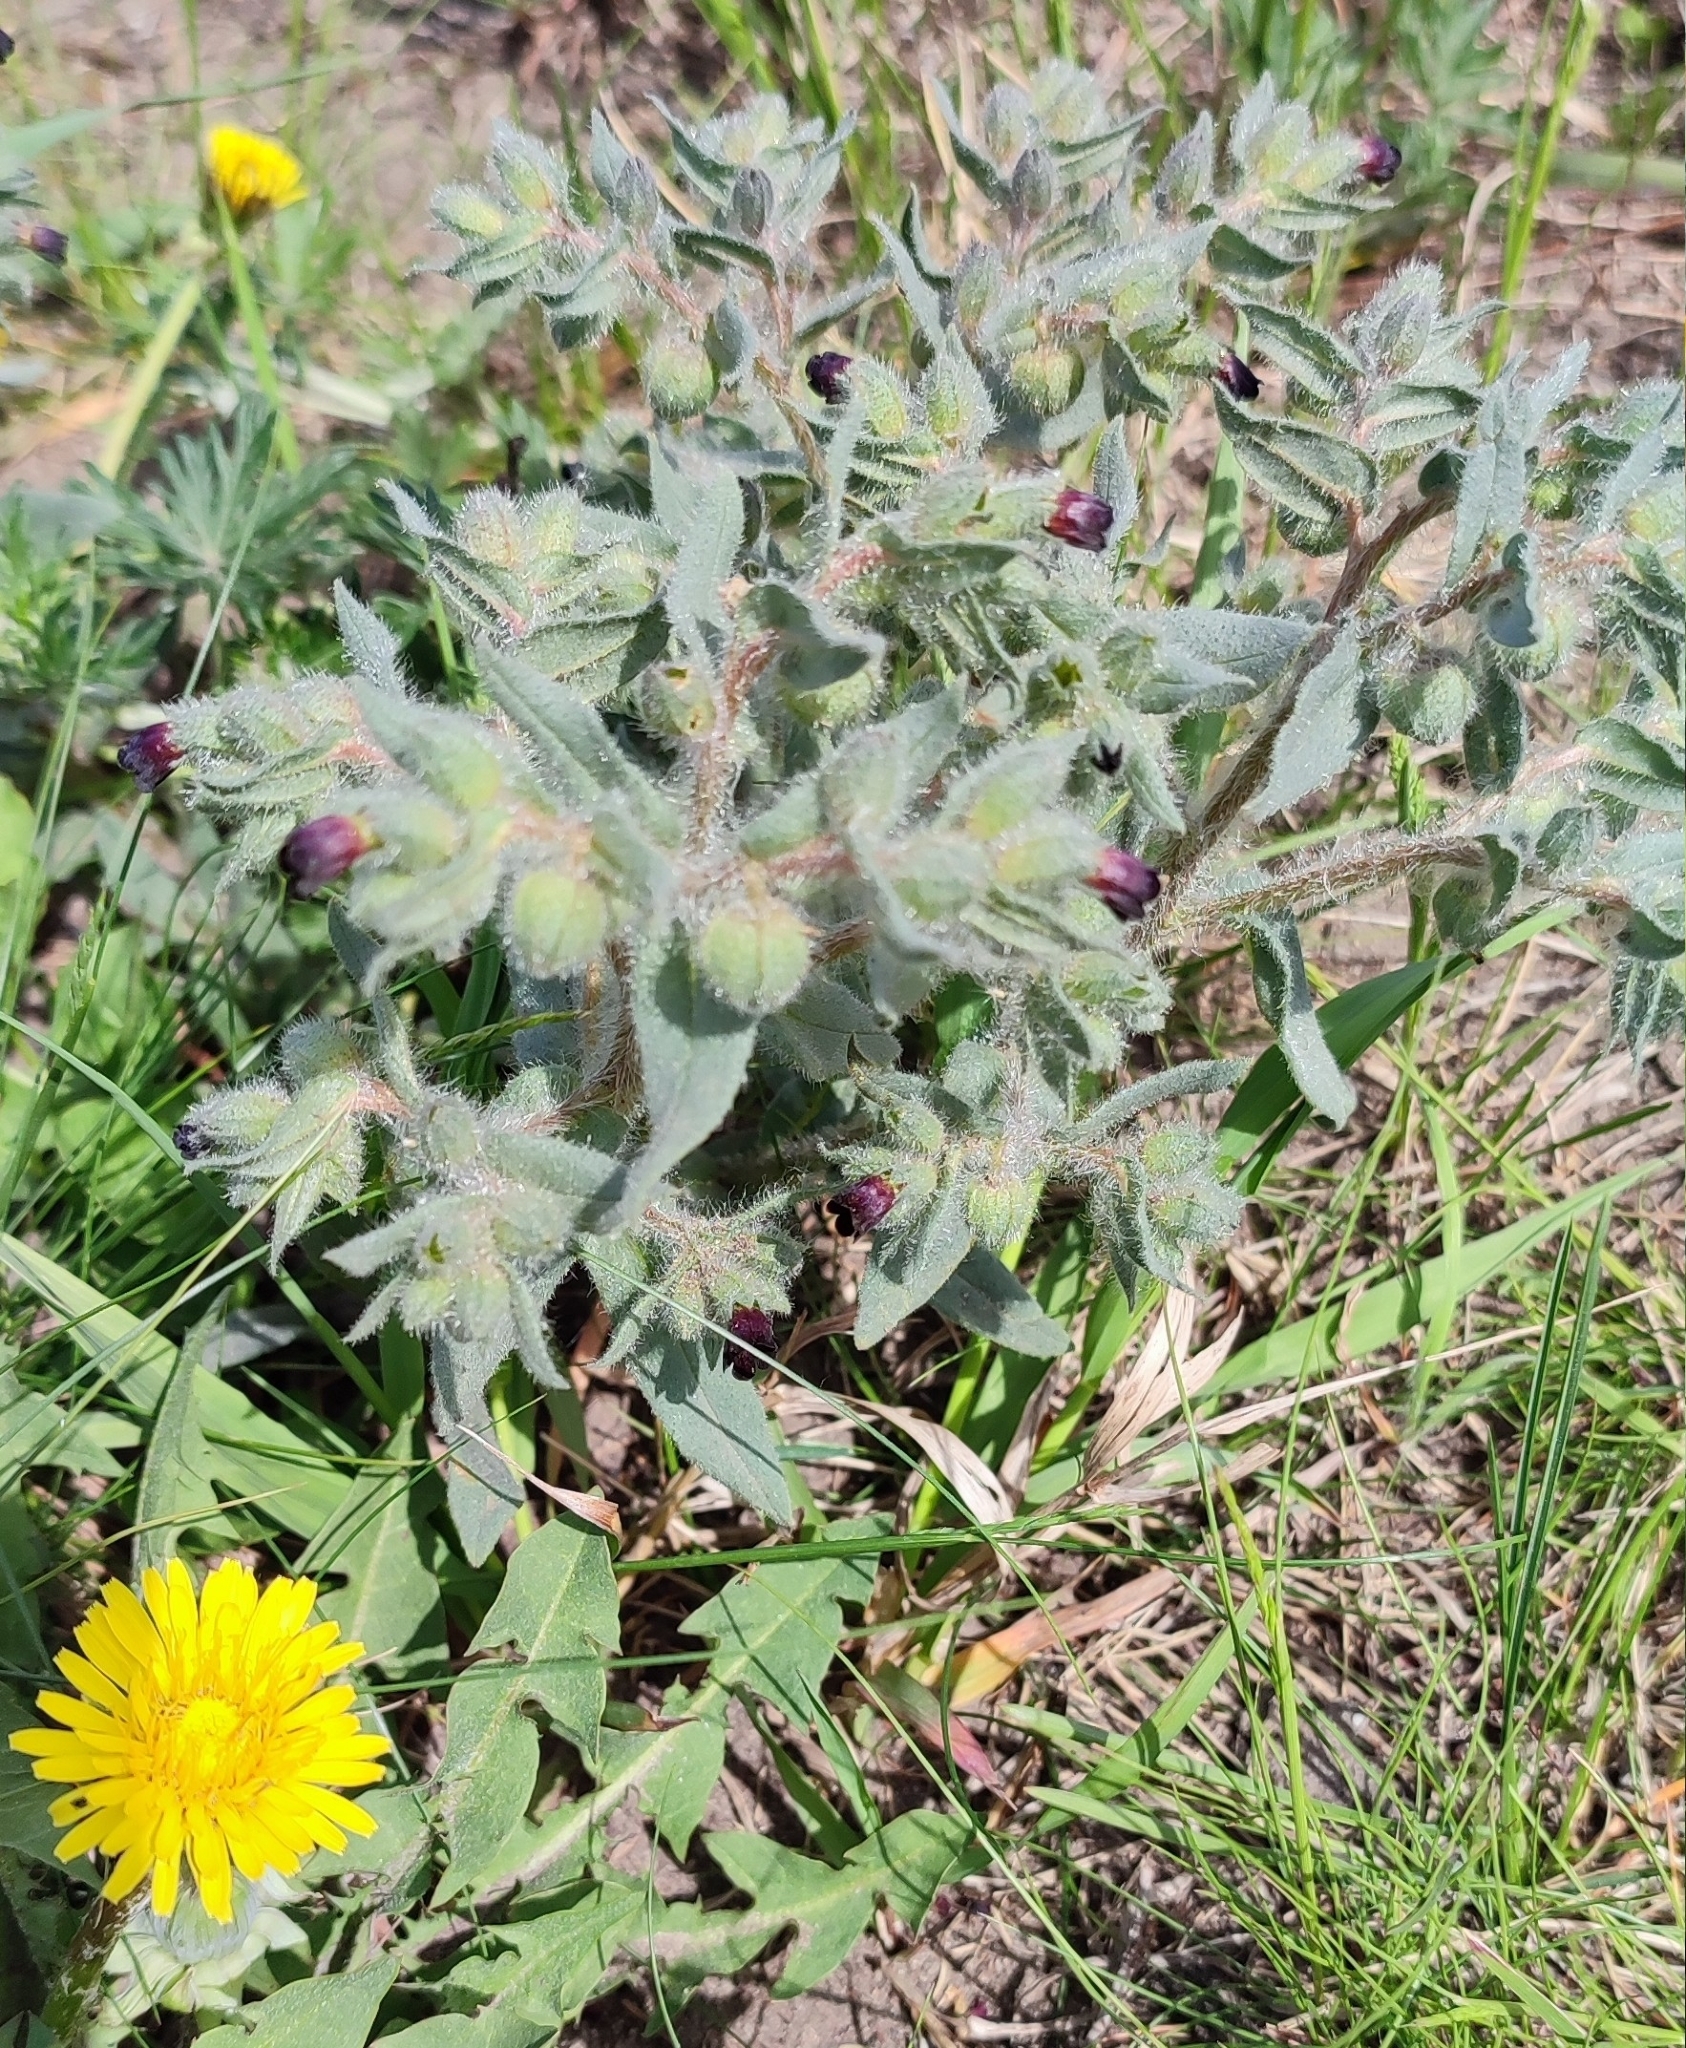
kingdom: Plantae
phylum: Tracheophyta
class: Magnoliopsida
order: Boraginales
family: Boraginaceae
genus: Nonea
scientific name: Nonea pulla
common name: Brown nonea
